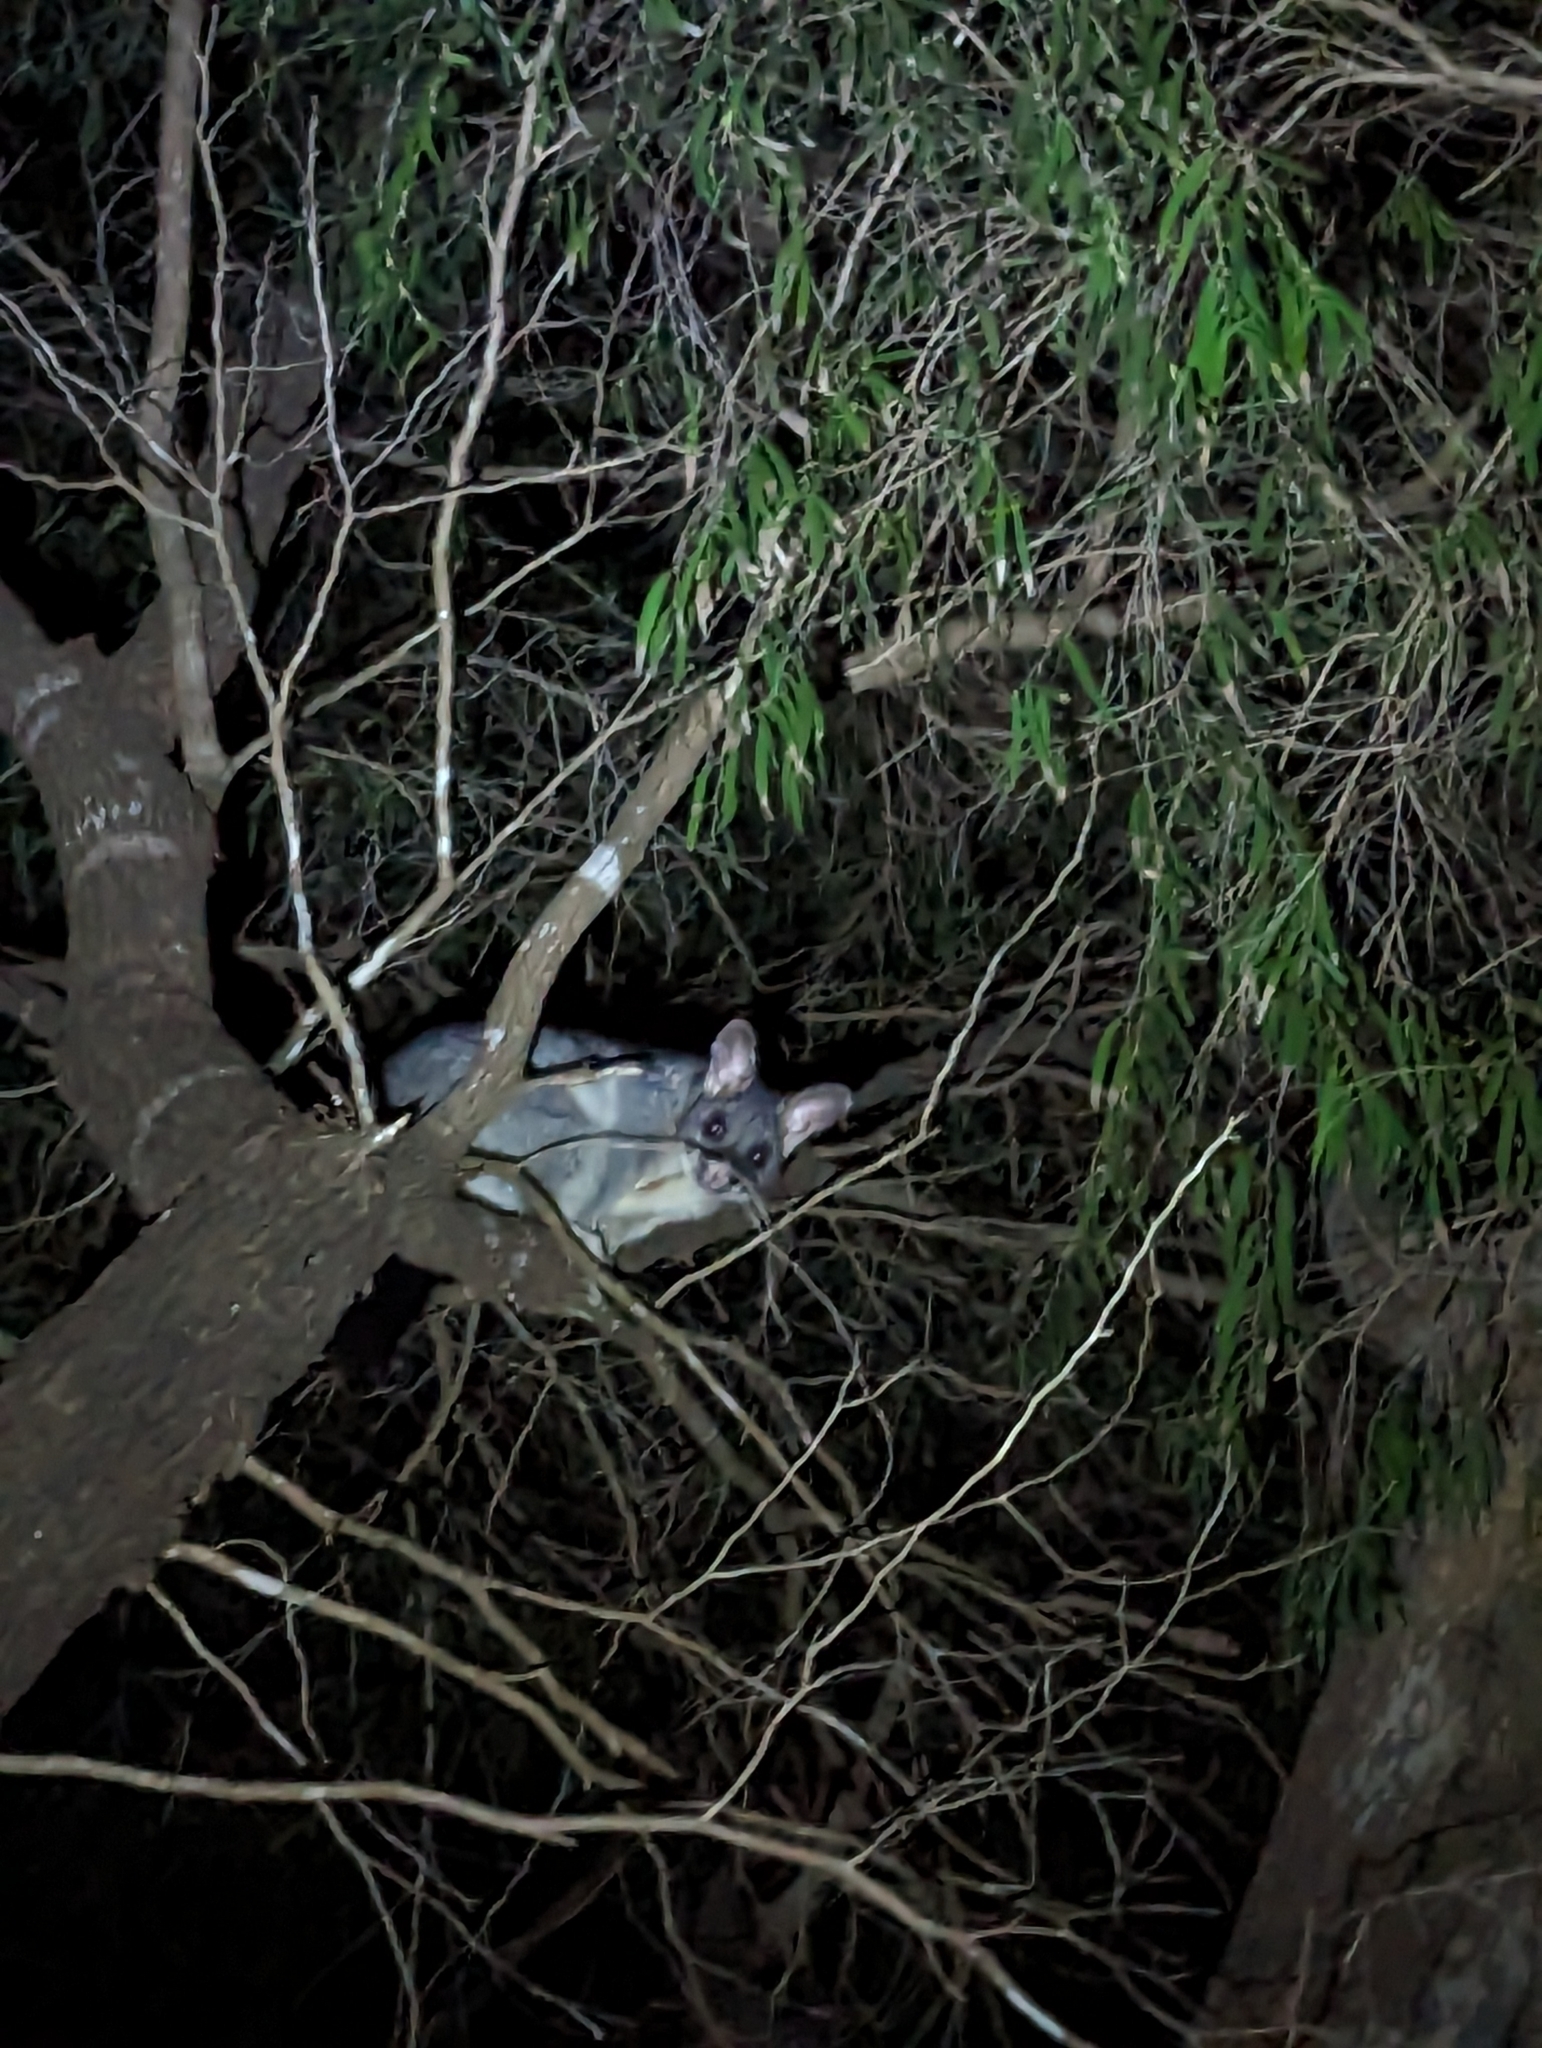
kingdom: Animalia
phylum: Chordata
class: Mammalia
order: Diprotodontia
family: Phalangeridae
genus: Trichosurus
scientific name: Trichosurus vulpecula
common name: Common brushtail
